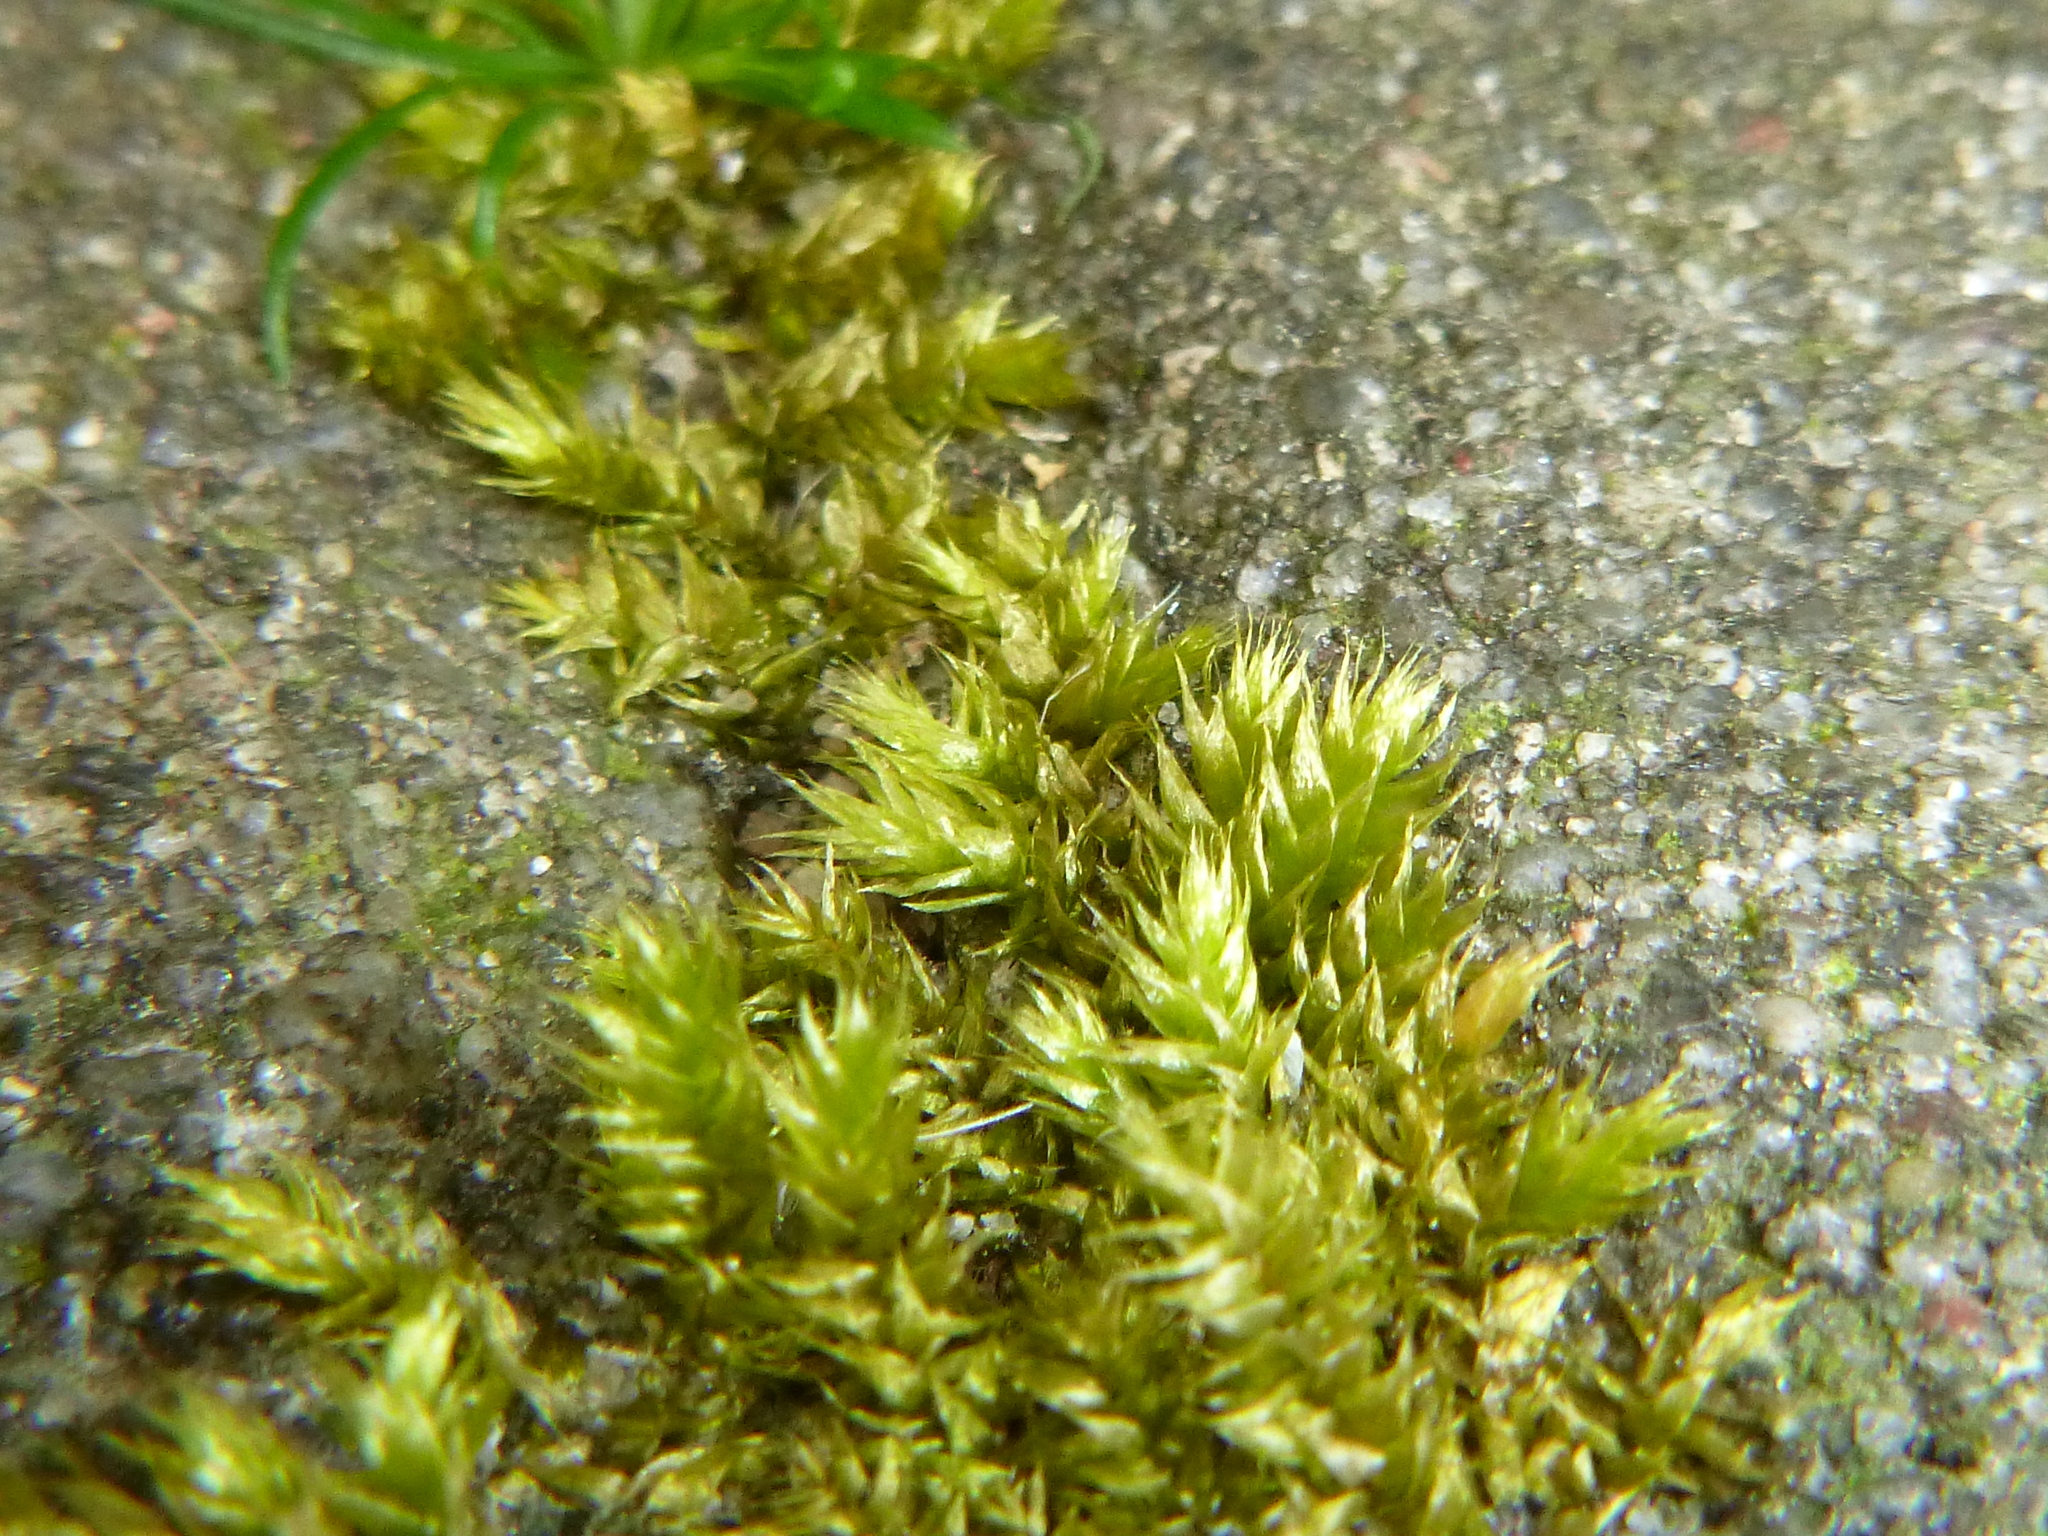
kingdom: Plantae
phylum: Bryophyta
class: Bryopsida
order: Hypnales
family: Hypnaceae
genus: Hypnum
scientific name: Hypnum cupressiforme
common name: Cypress-leaved plait-moss
